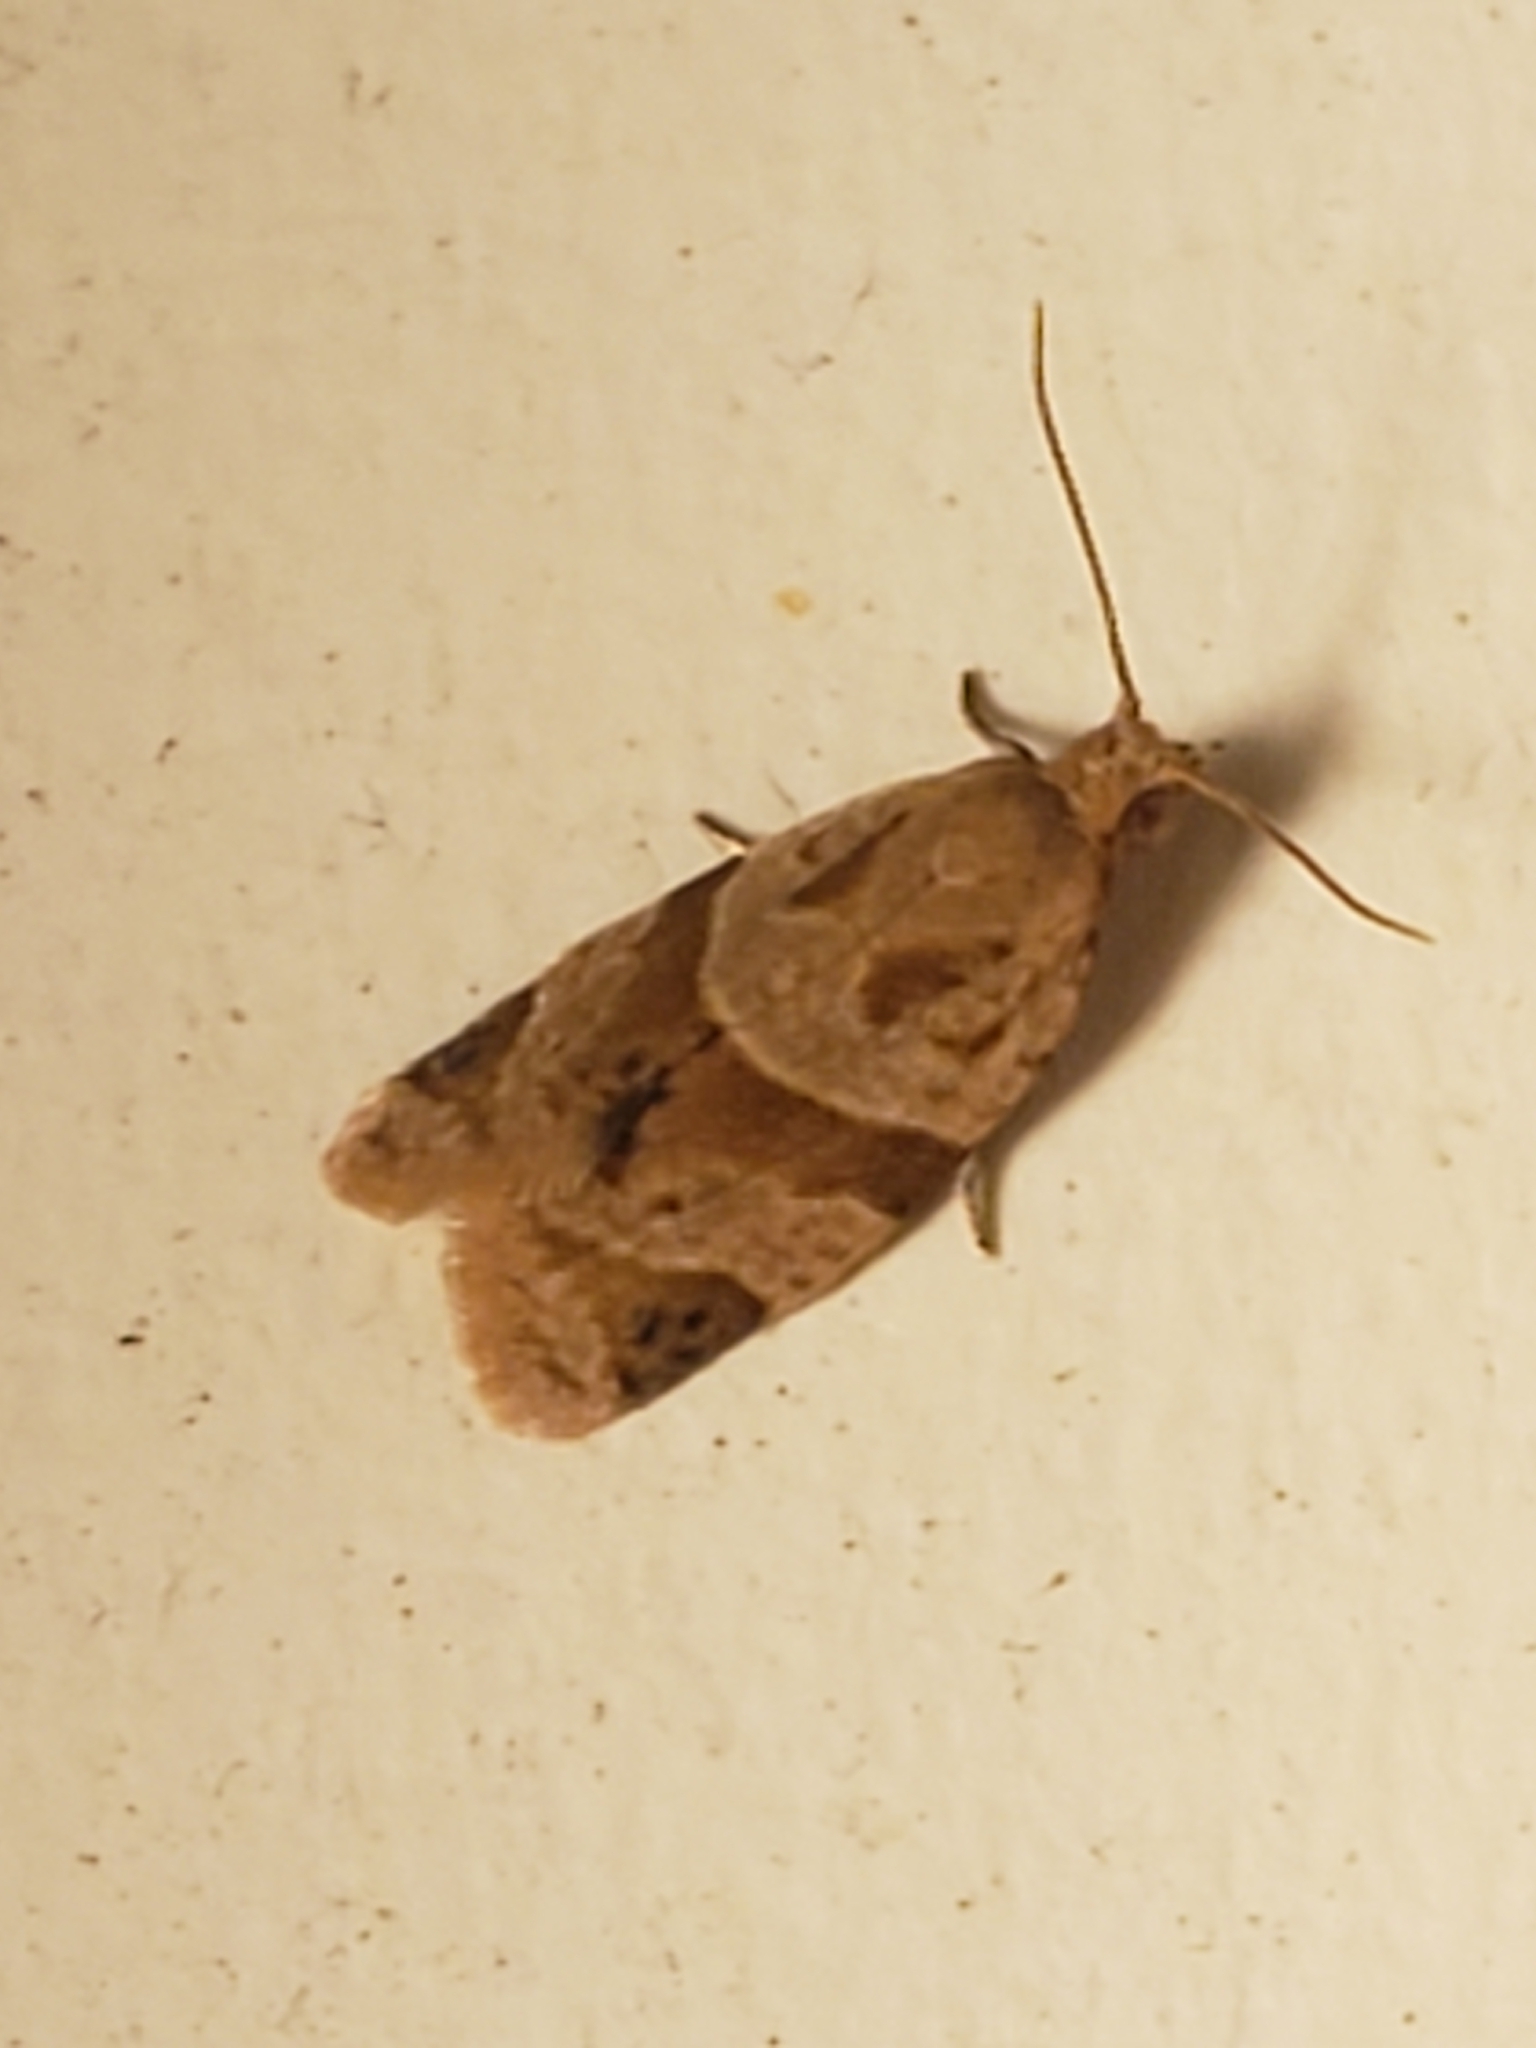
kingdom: Animalia
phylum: Arthropoda
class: Insecta
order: Lepidoptera
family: Tortricidae
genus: Clepsis
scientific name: Clepsis peritana
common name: Garden tortrix
